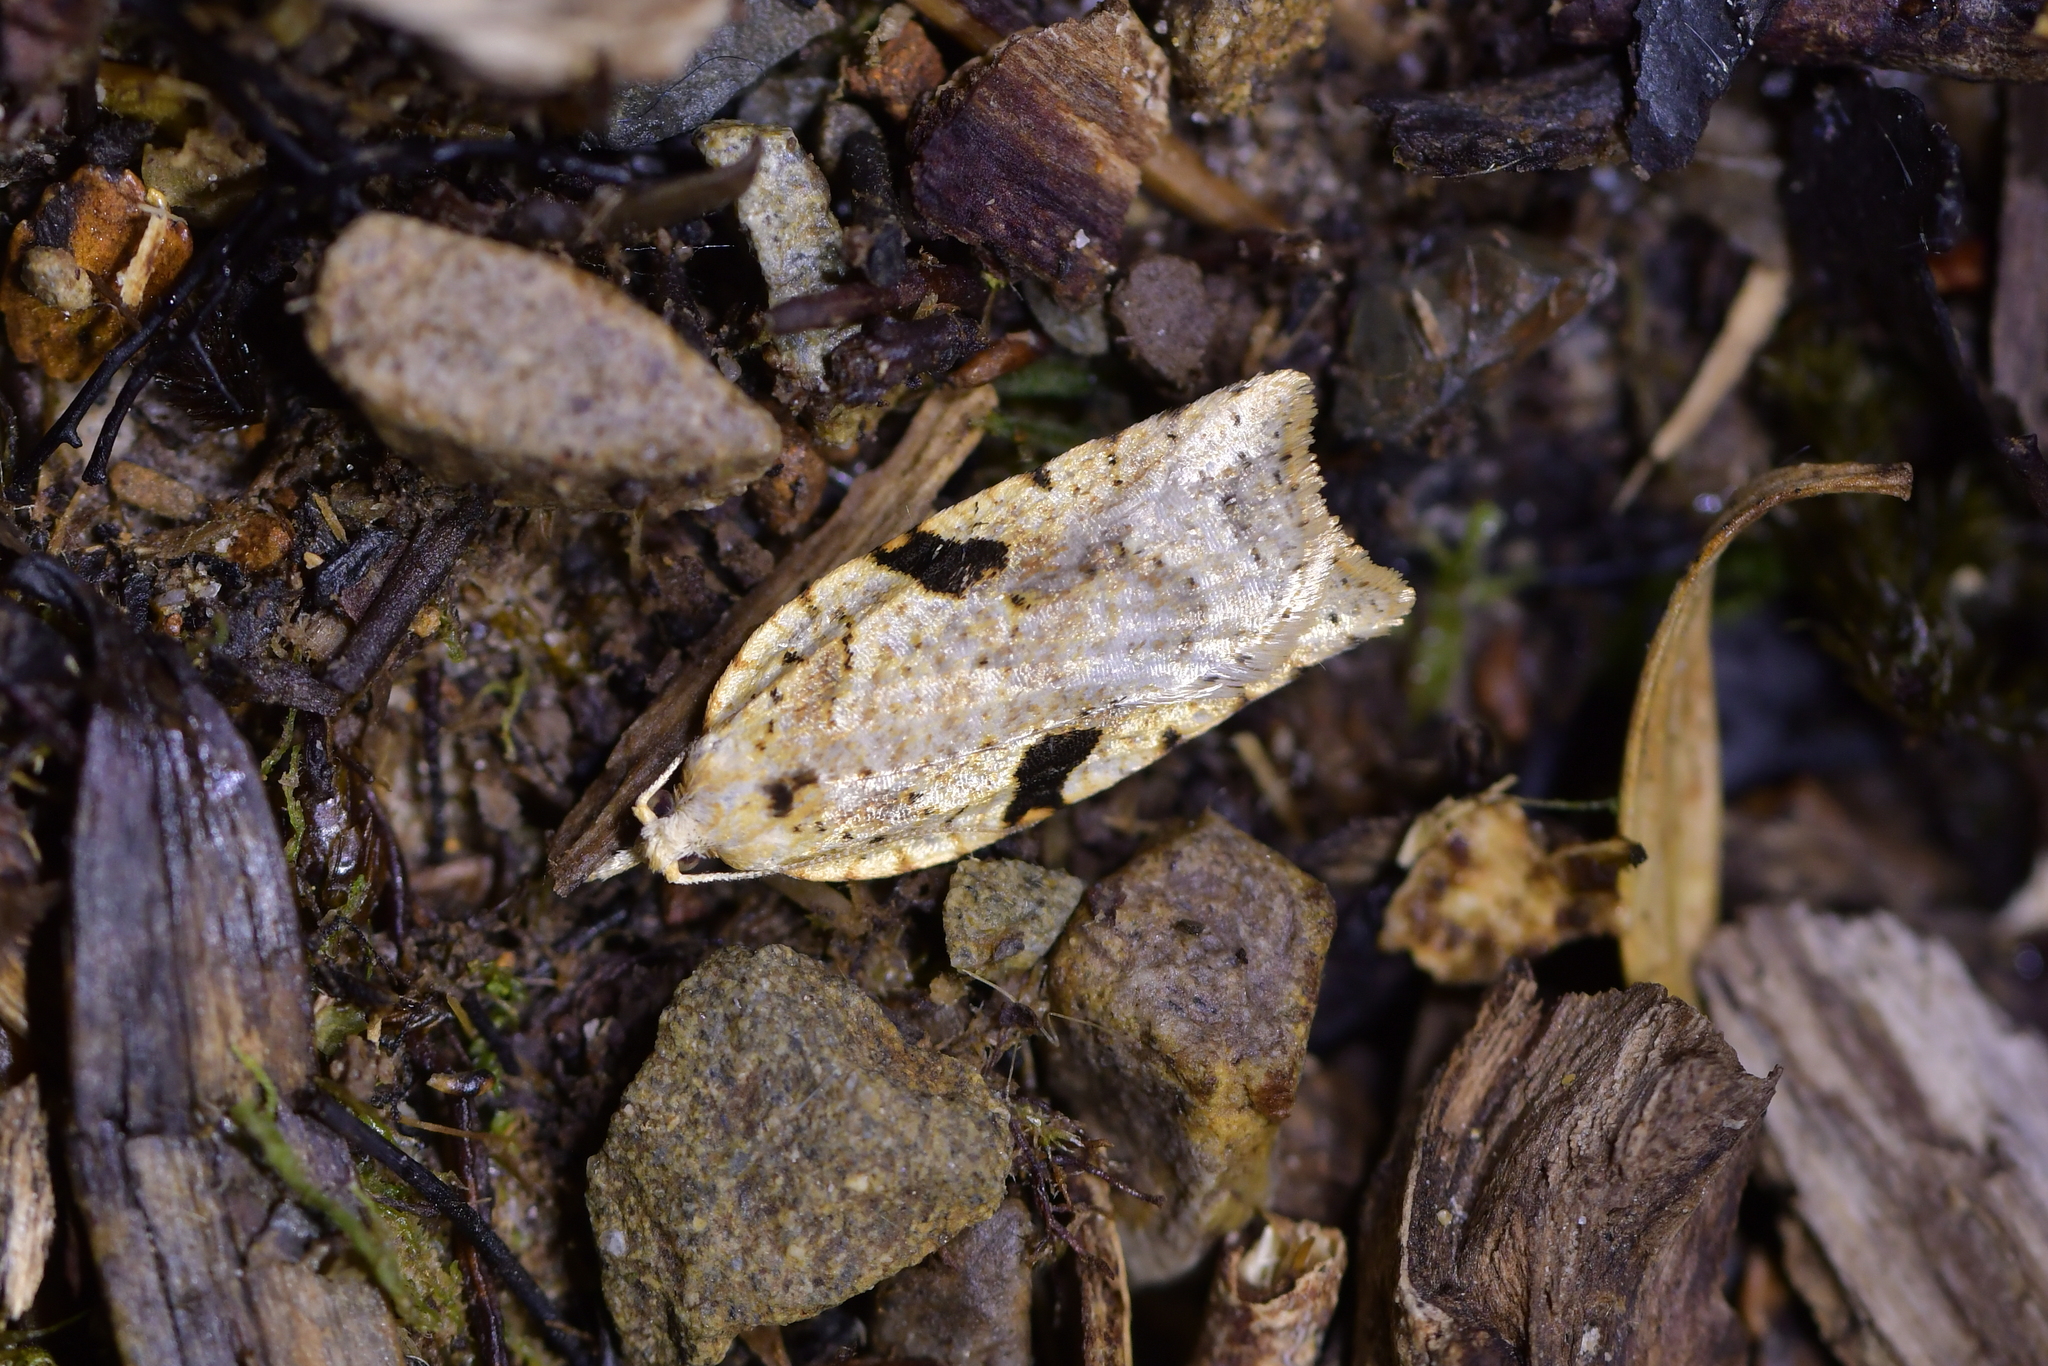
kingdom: Animalia
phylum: Arthropoda
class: Insecta
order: Lepidoptera
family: Tortricidae
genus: Leucotenes
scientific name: Leucotenes coprosmae
